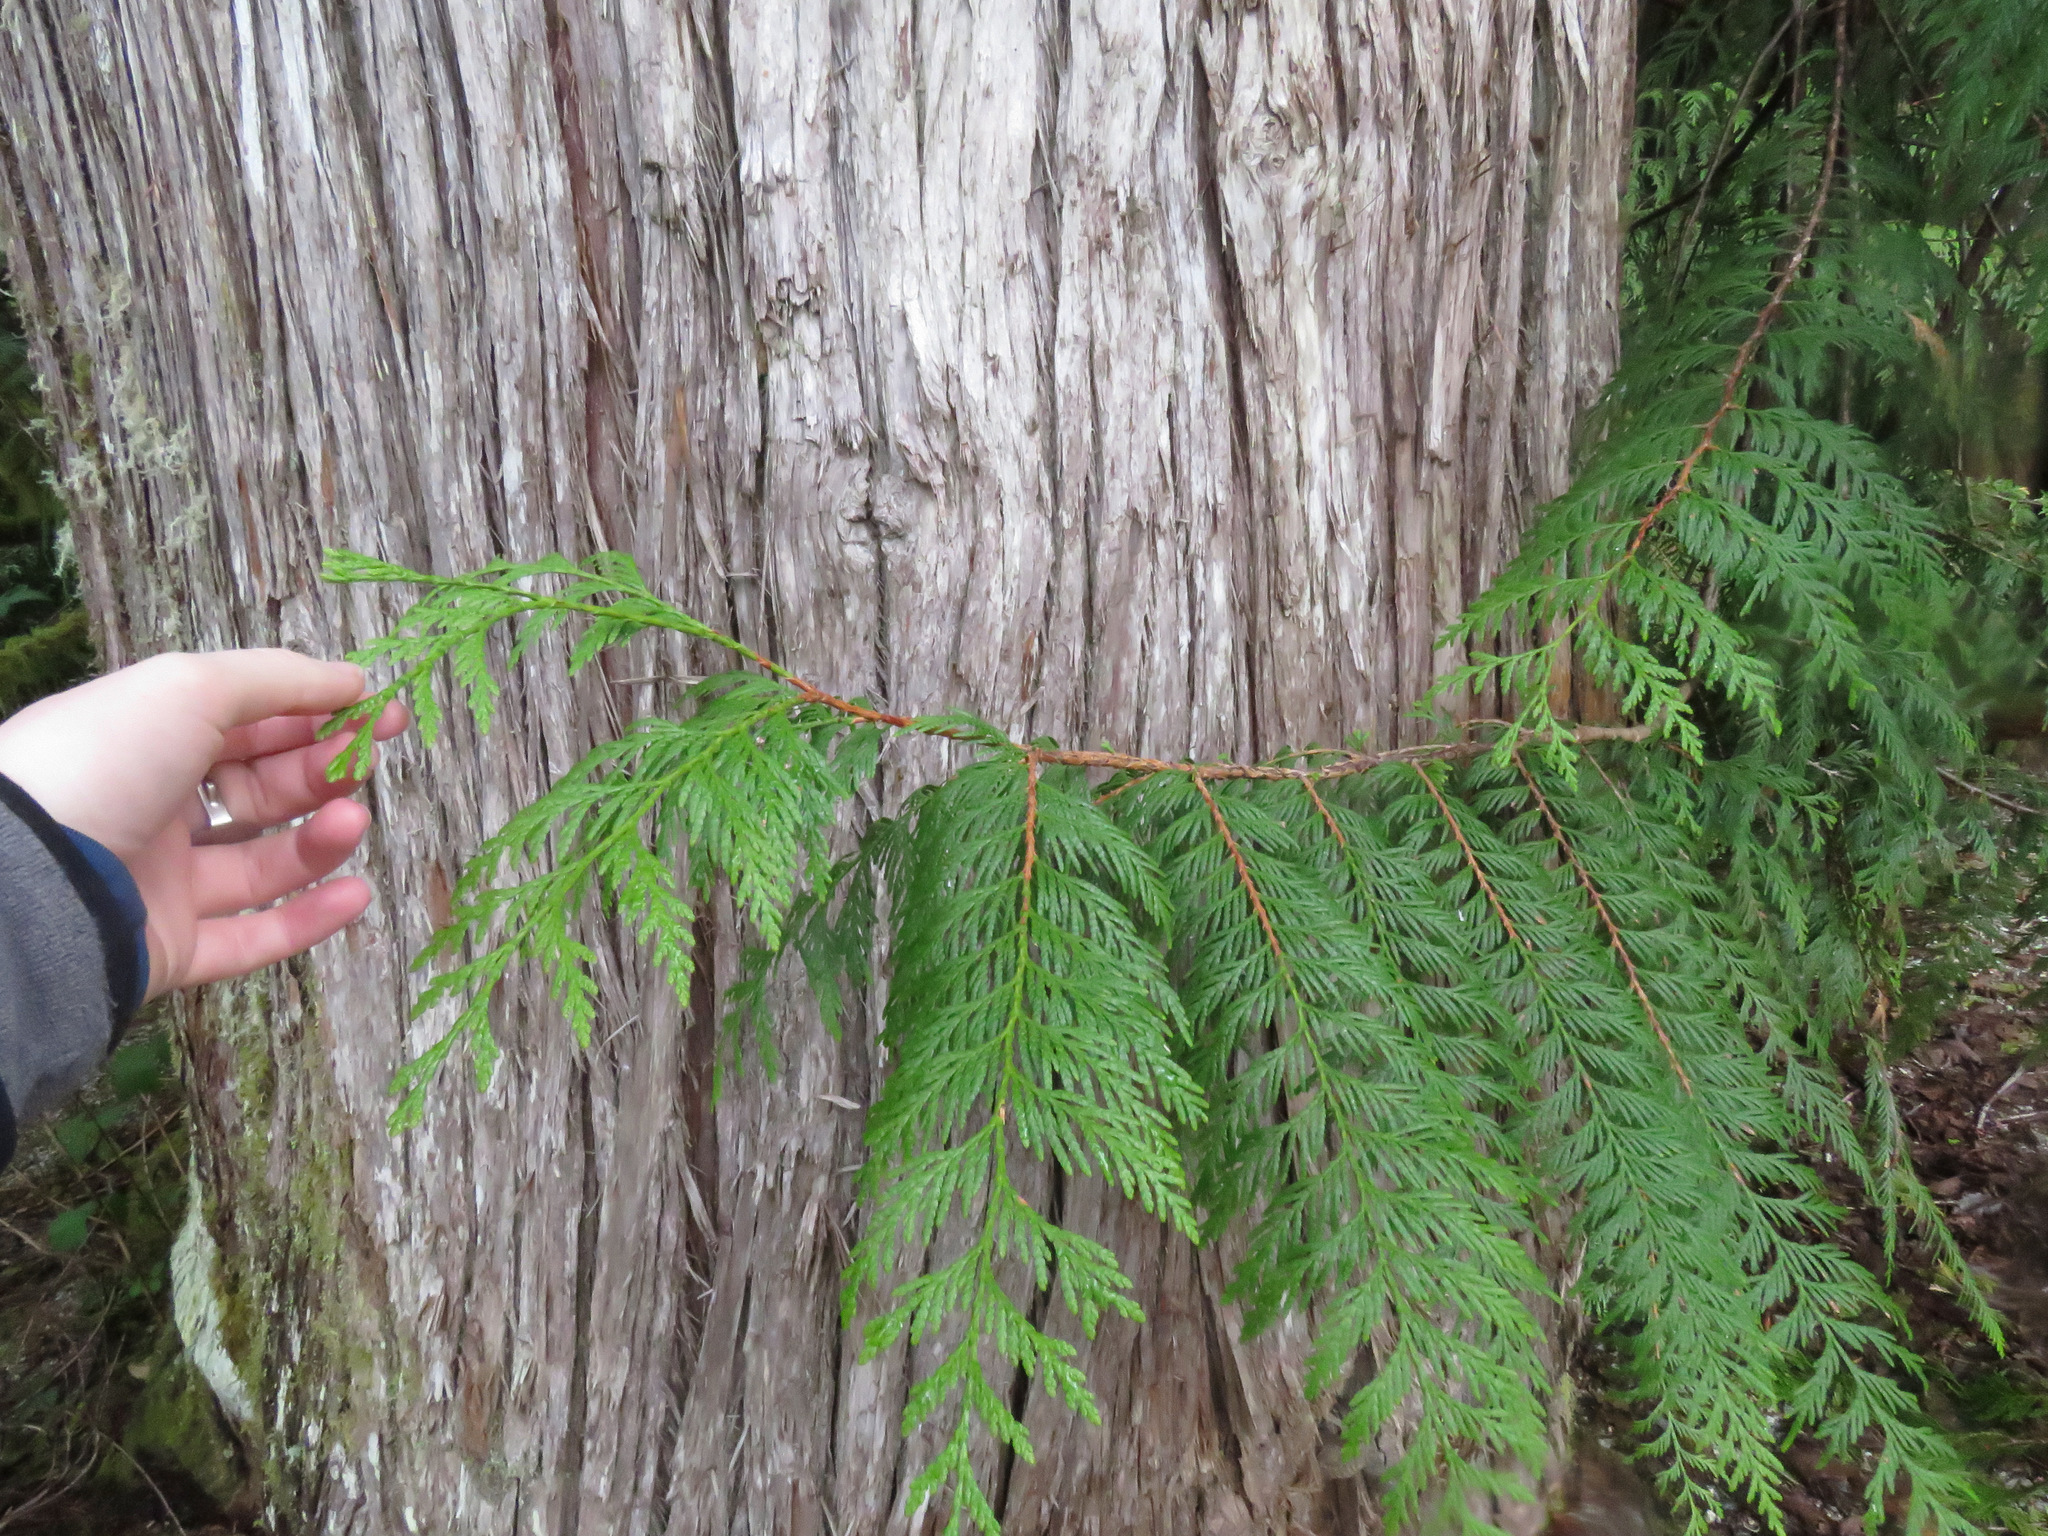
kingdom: Plantae
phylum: Tracheophyta
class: Pinopsida
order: Pinales
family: Cupressaceae
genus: Thuja
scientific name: Thuja plicata
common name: Western red-cedar
